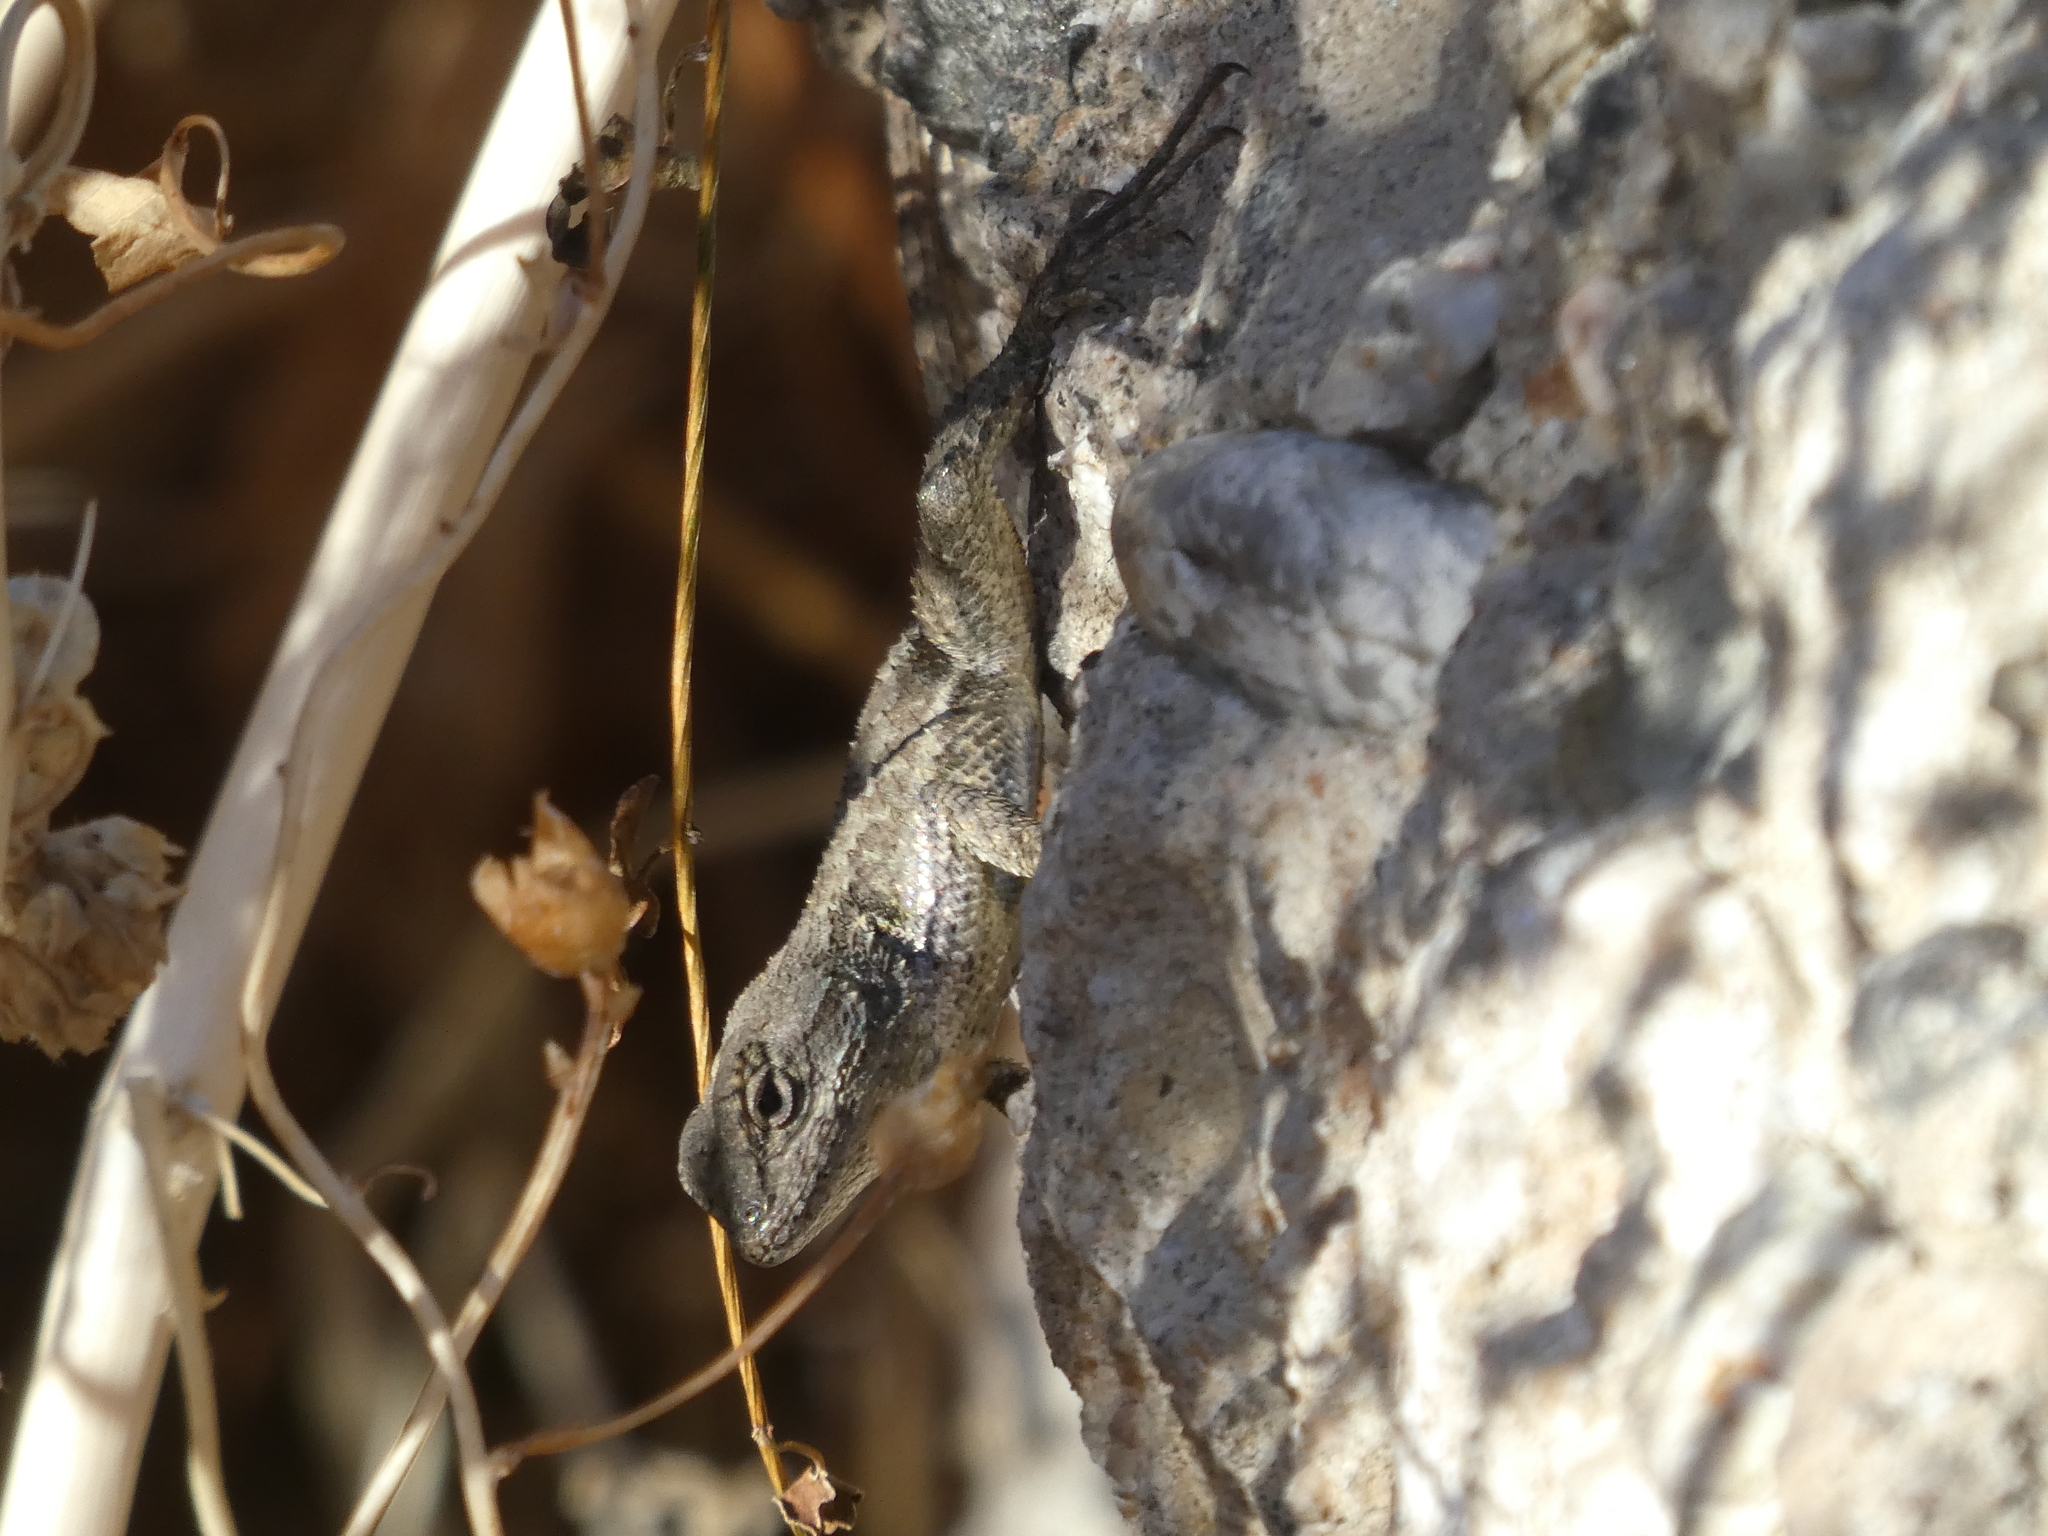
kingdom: Animalia
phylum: Chordata
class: Squamata
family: Phrynosomatidae
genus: Sceloporus
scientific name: Sceloporus occidentalis
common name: Western fence lizard
